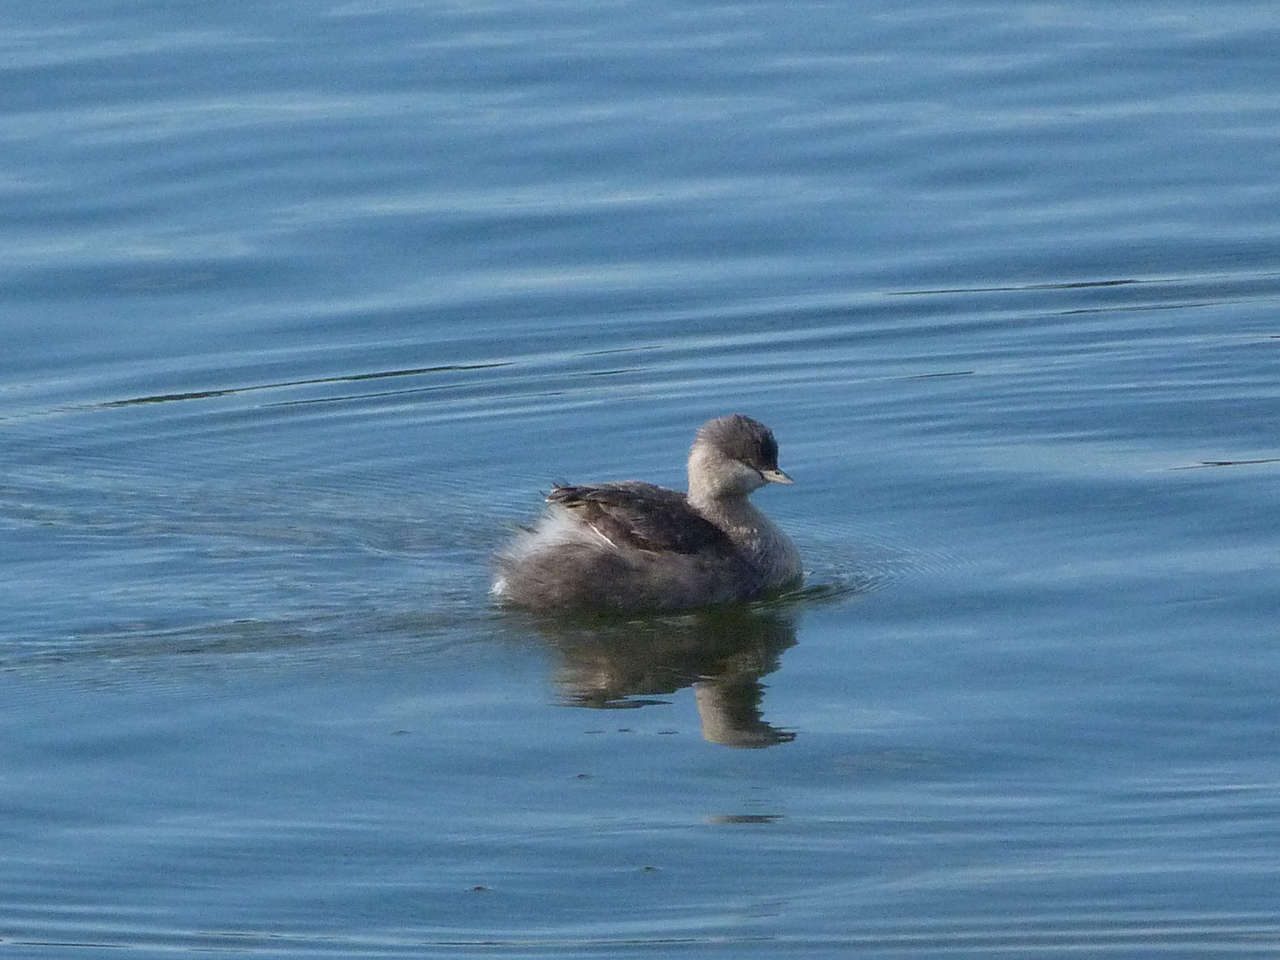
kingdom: Animalia
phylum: Chordata
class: Aves
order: Podicipediformes
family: Podicipedidae
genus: Poliocephalus
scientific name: Poliocephalus poliocephalus
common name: Hoary-headed grebe
